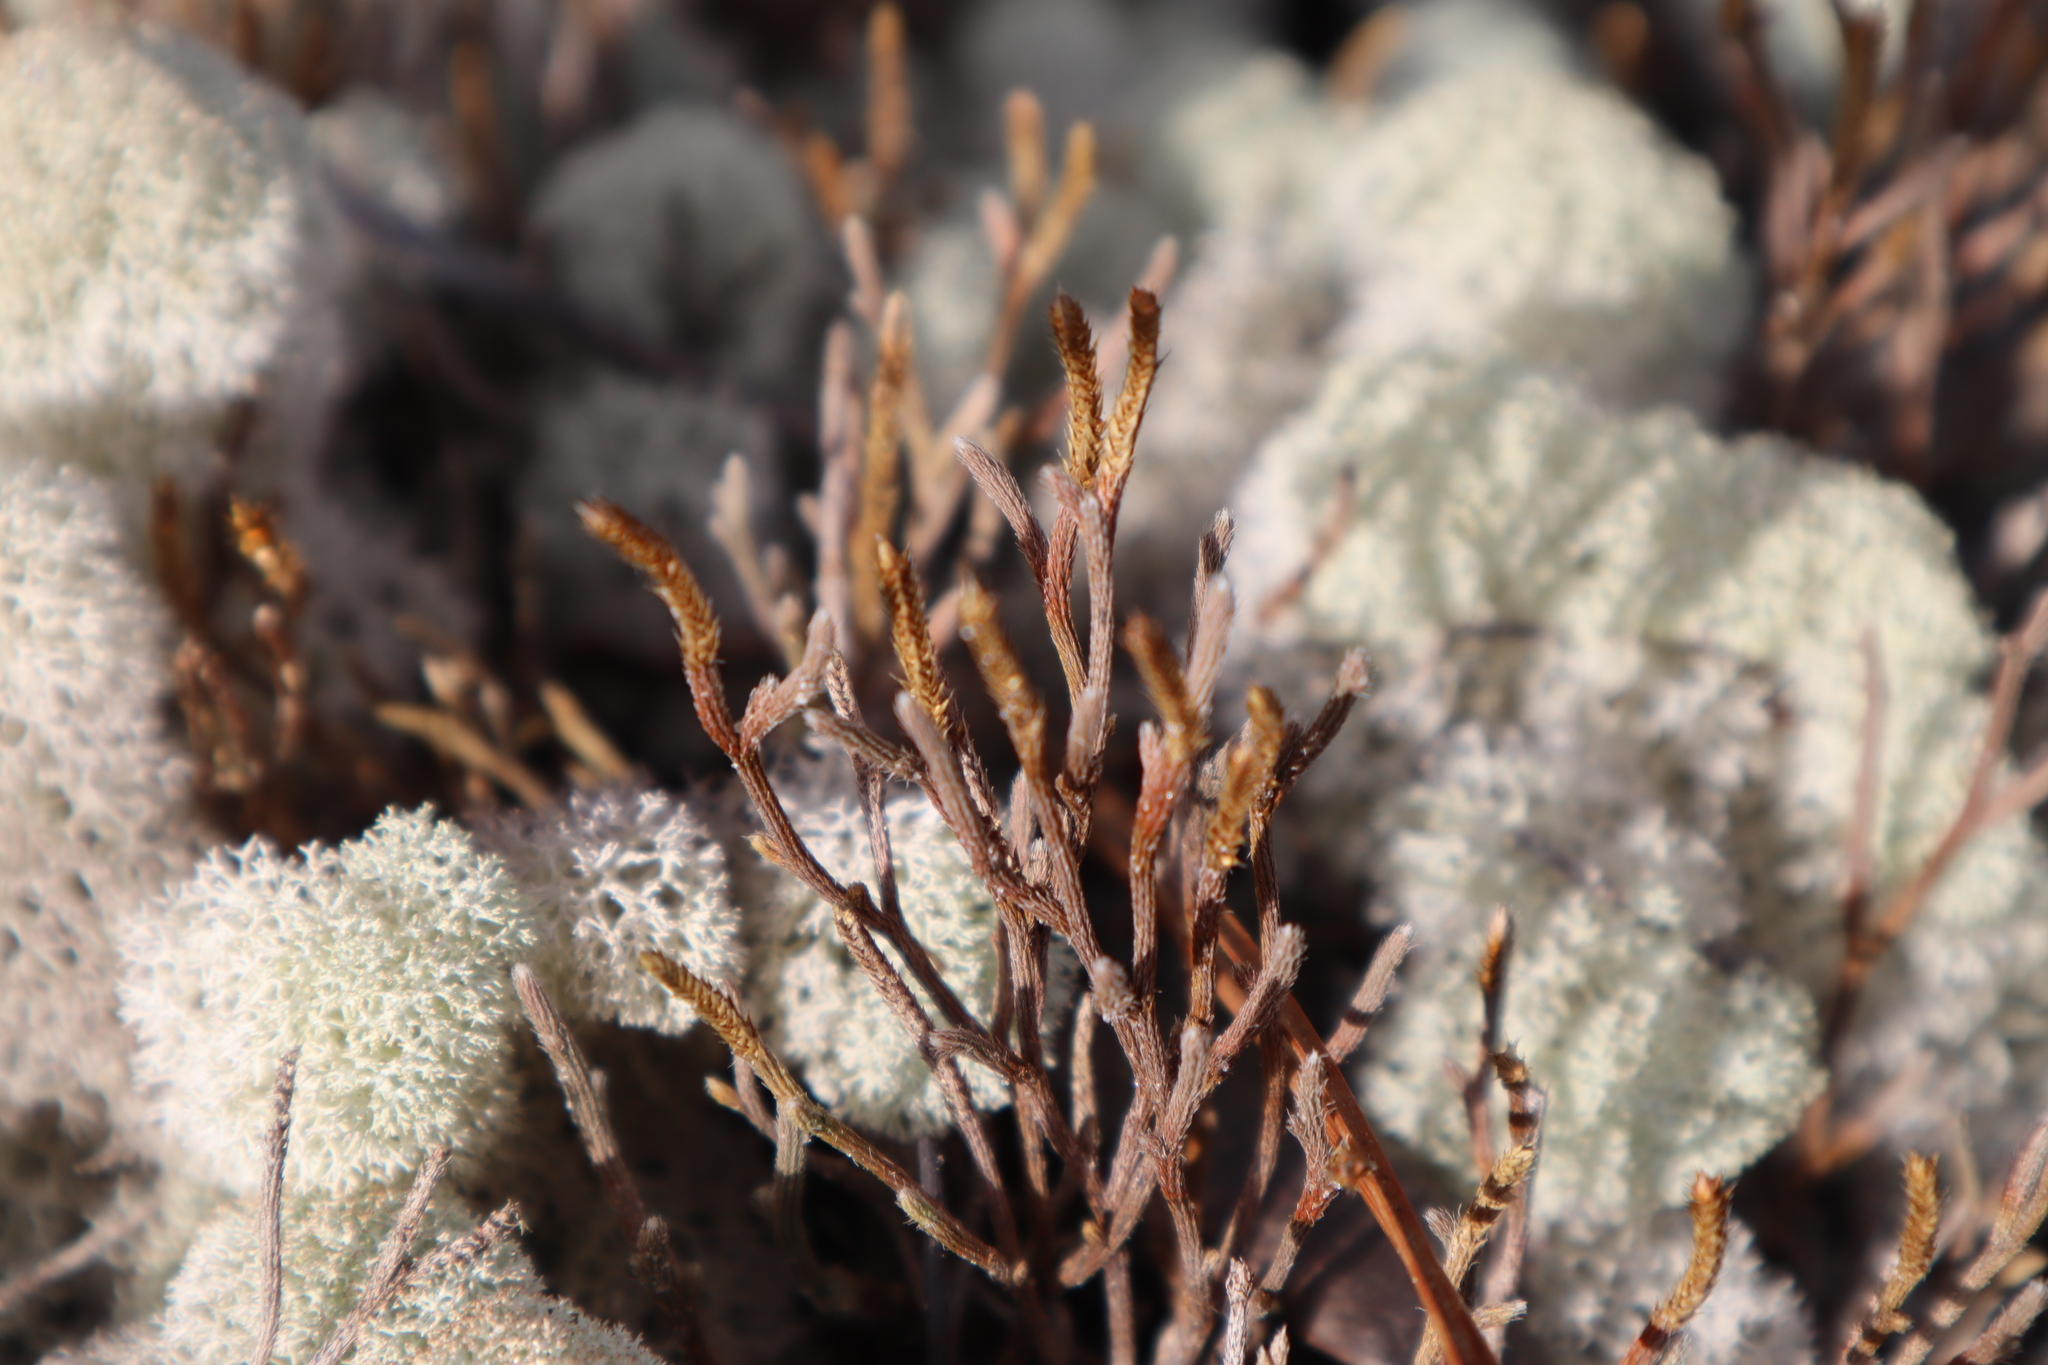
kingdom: Plantae
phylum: Tracheophyta
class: Lycopodiopsida
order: Selaginellales
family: Selaginellaceae
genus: Selaginella
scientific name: Selaginella arenicola
